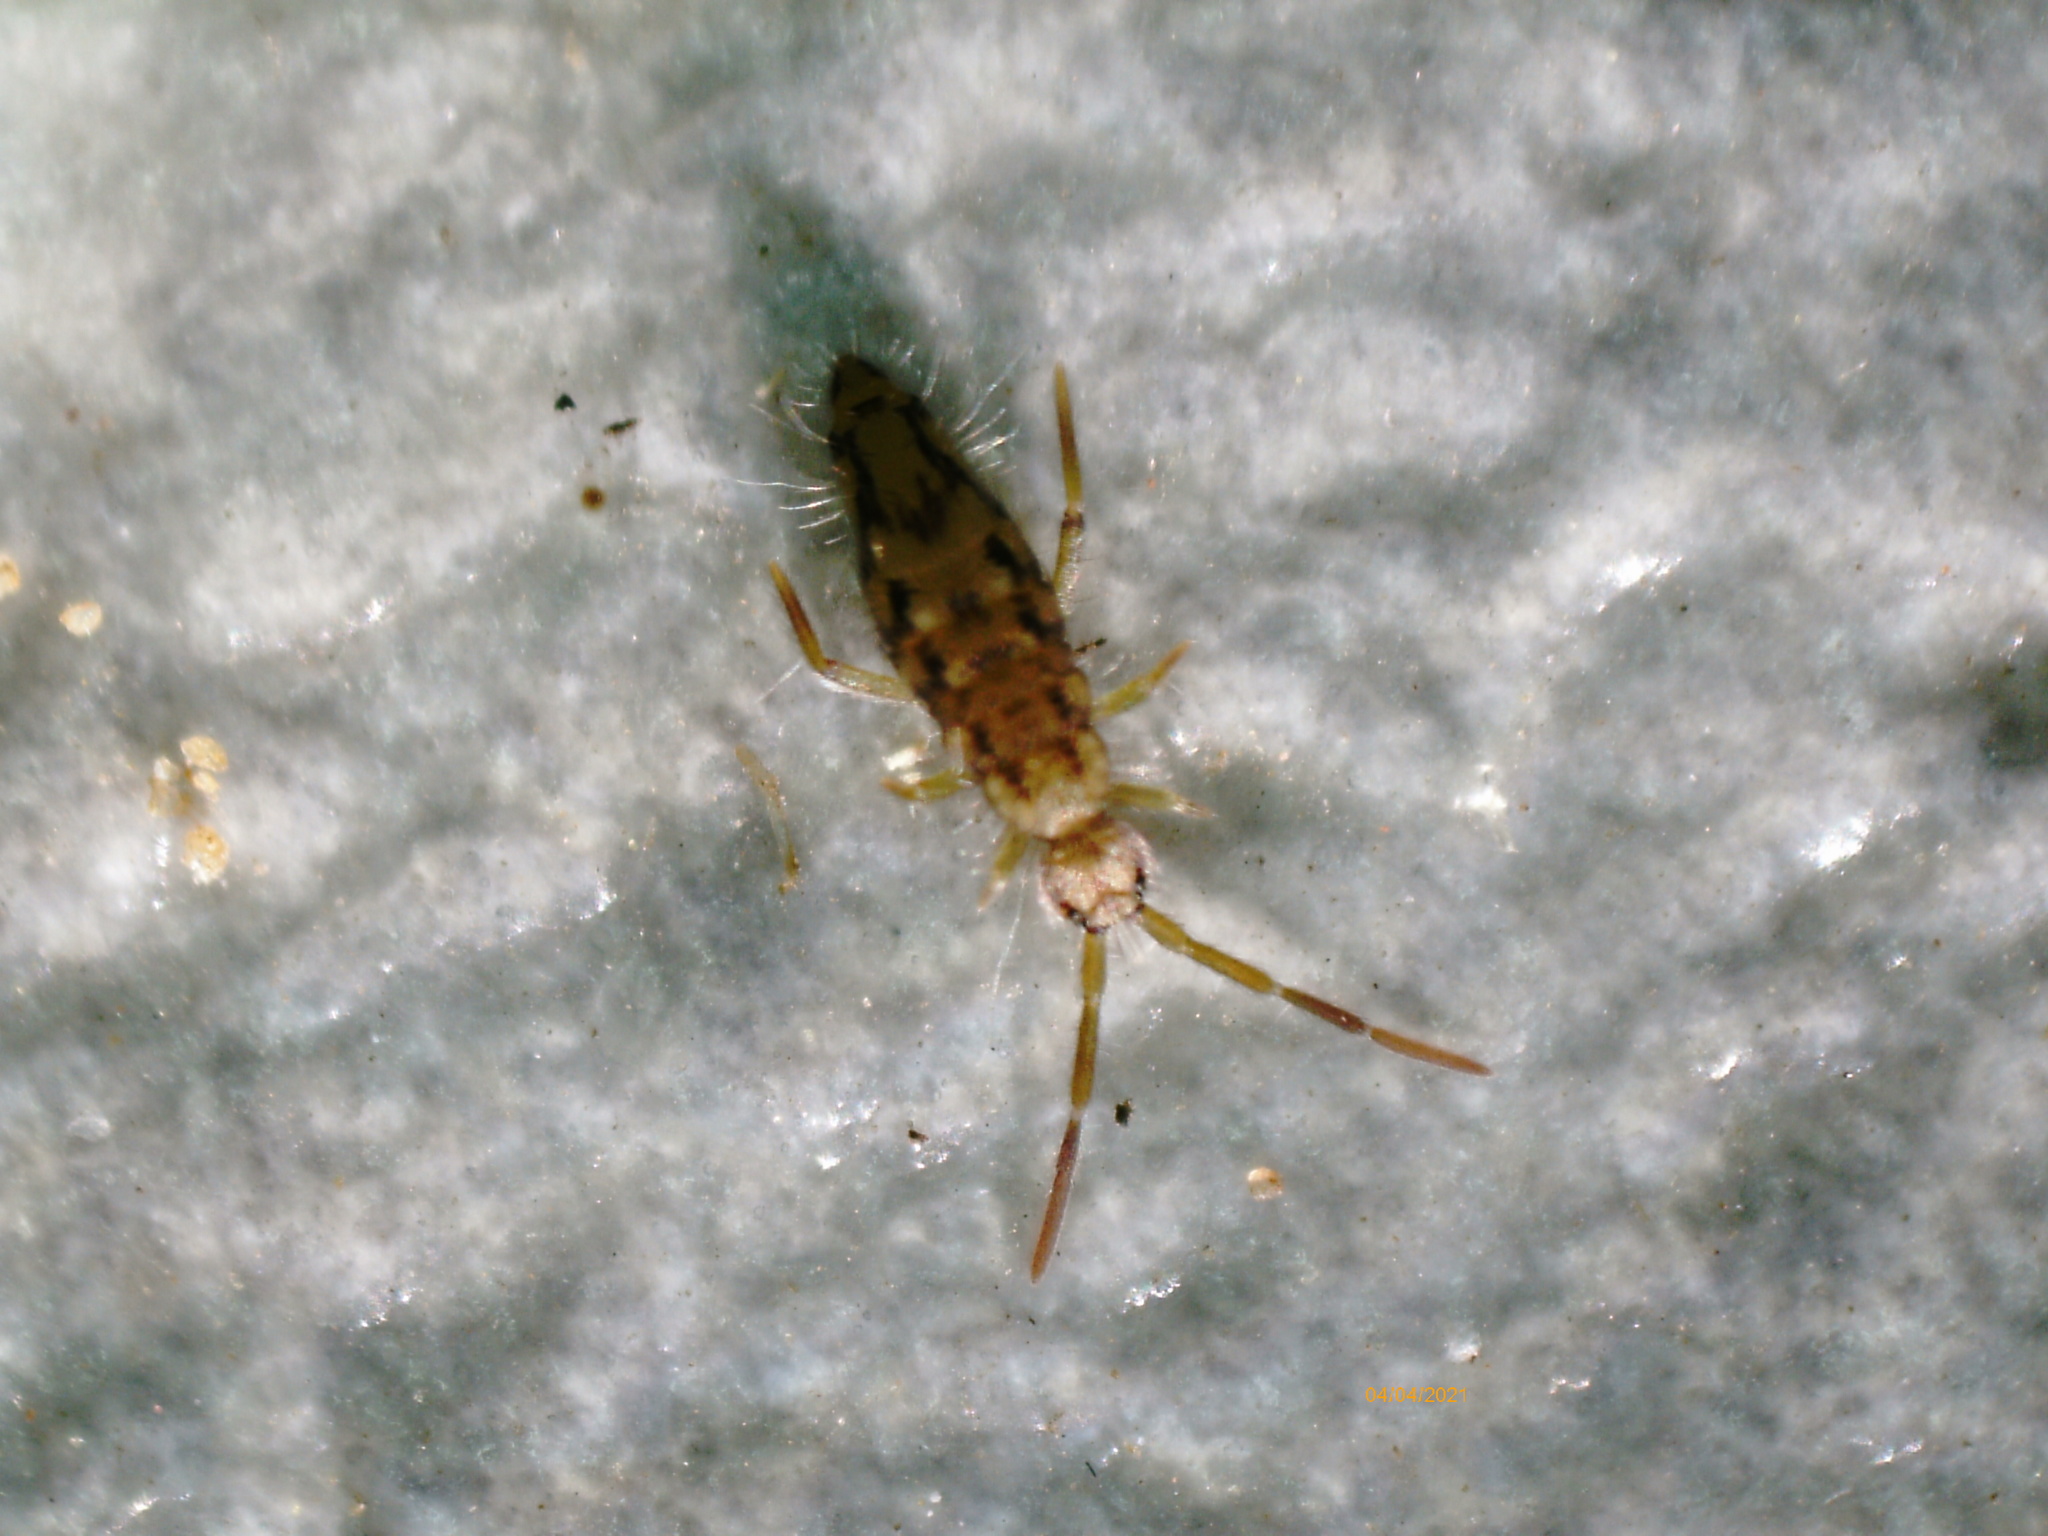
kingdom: Animalia
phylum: Arthropoda
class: Collembola
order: Entomobryomorpha
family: Entomobryidae
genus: Entomobrya
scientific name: Entomobrya intermedia
